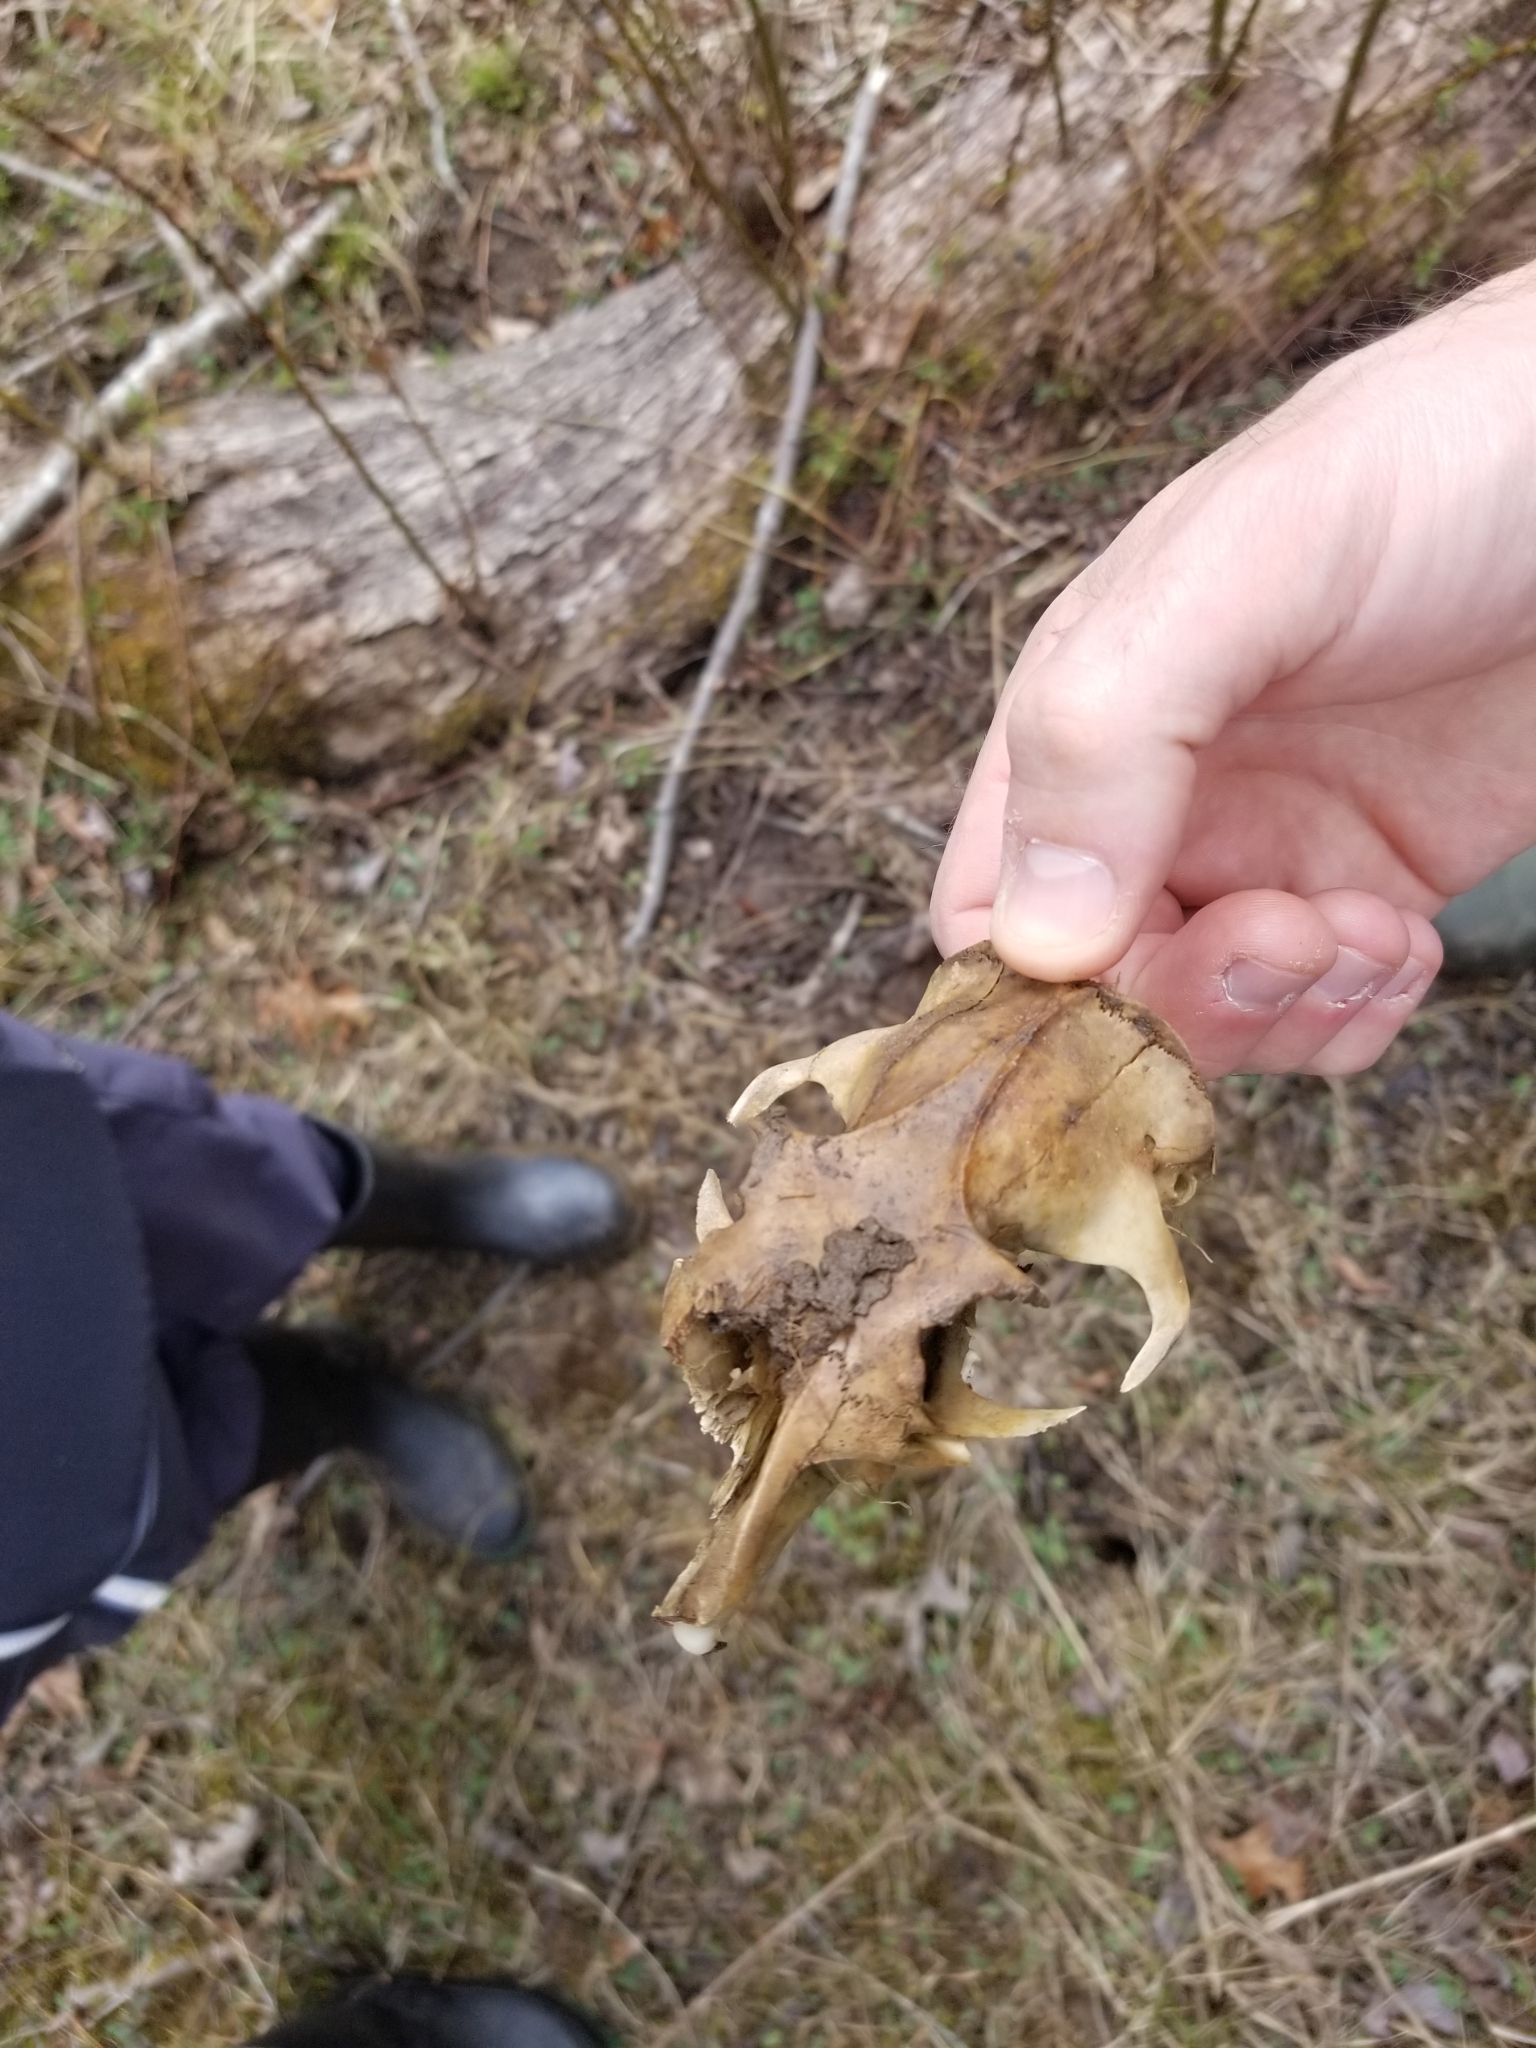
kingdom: Animalia
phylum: Chordata
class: Mammalia
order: Rodentia
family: Sciuridae
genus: Marmota
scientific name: Marmota monax
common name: Groundhog
